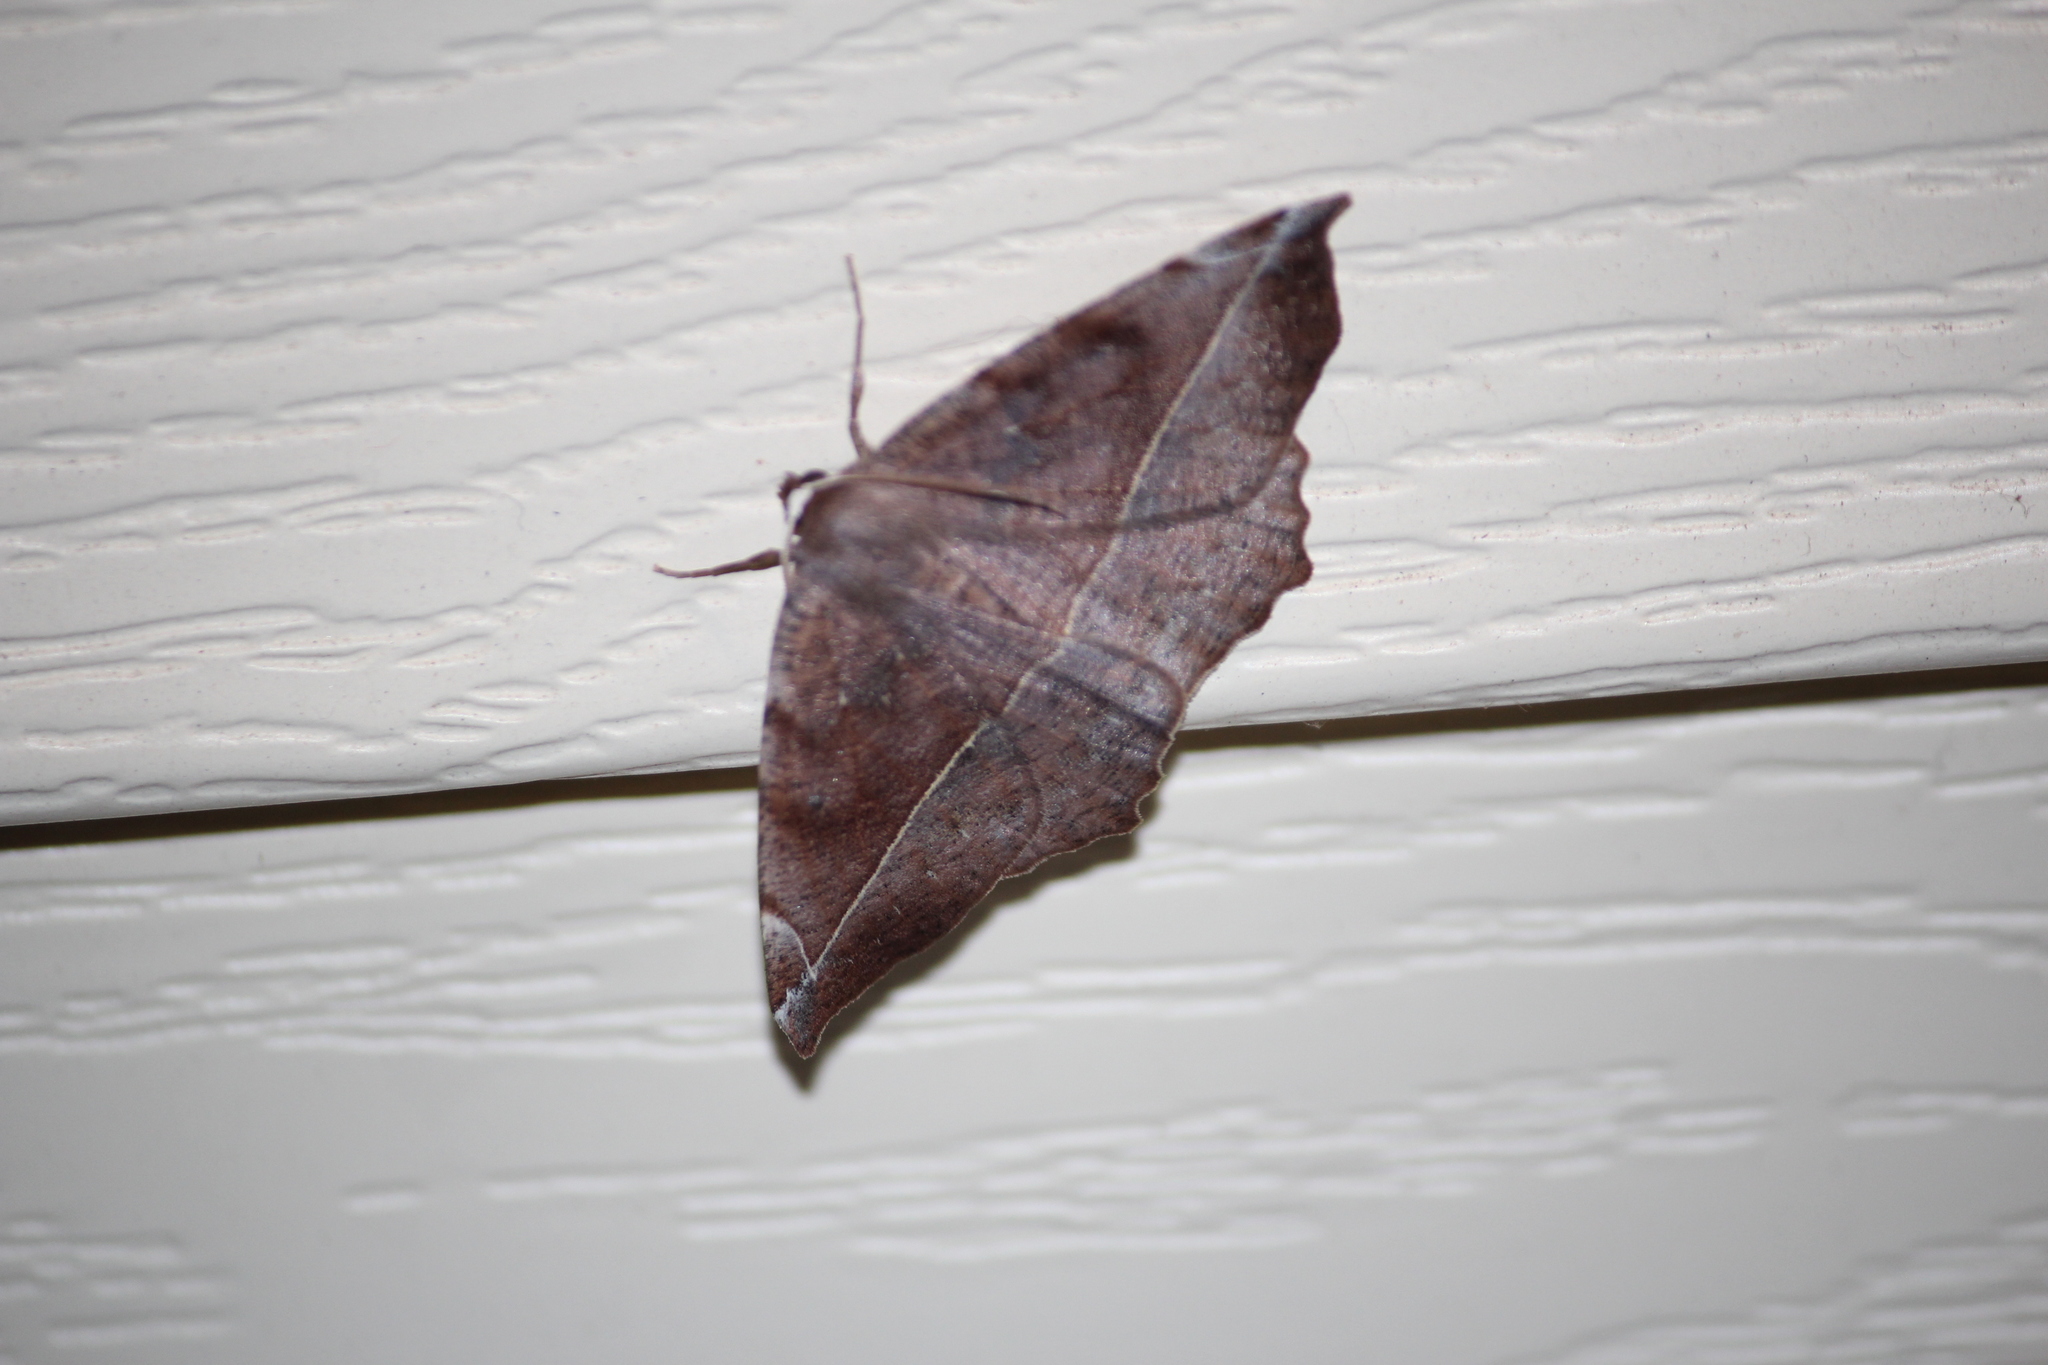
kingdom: Animalia
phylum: Arthropoda
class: Insecta
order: Lepidoptera
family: Geometridae
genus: Eutrapela
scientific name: Eutrapela clemataria
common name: Curved-toothed geometer
